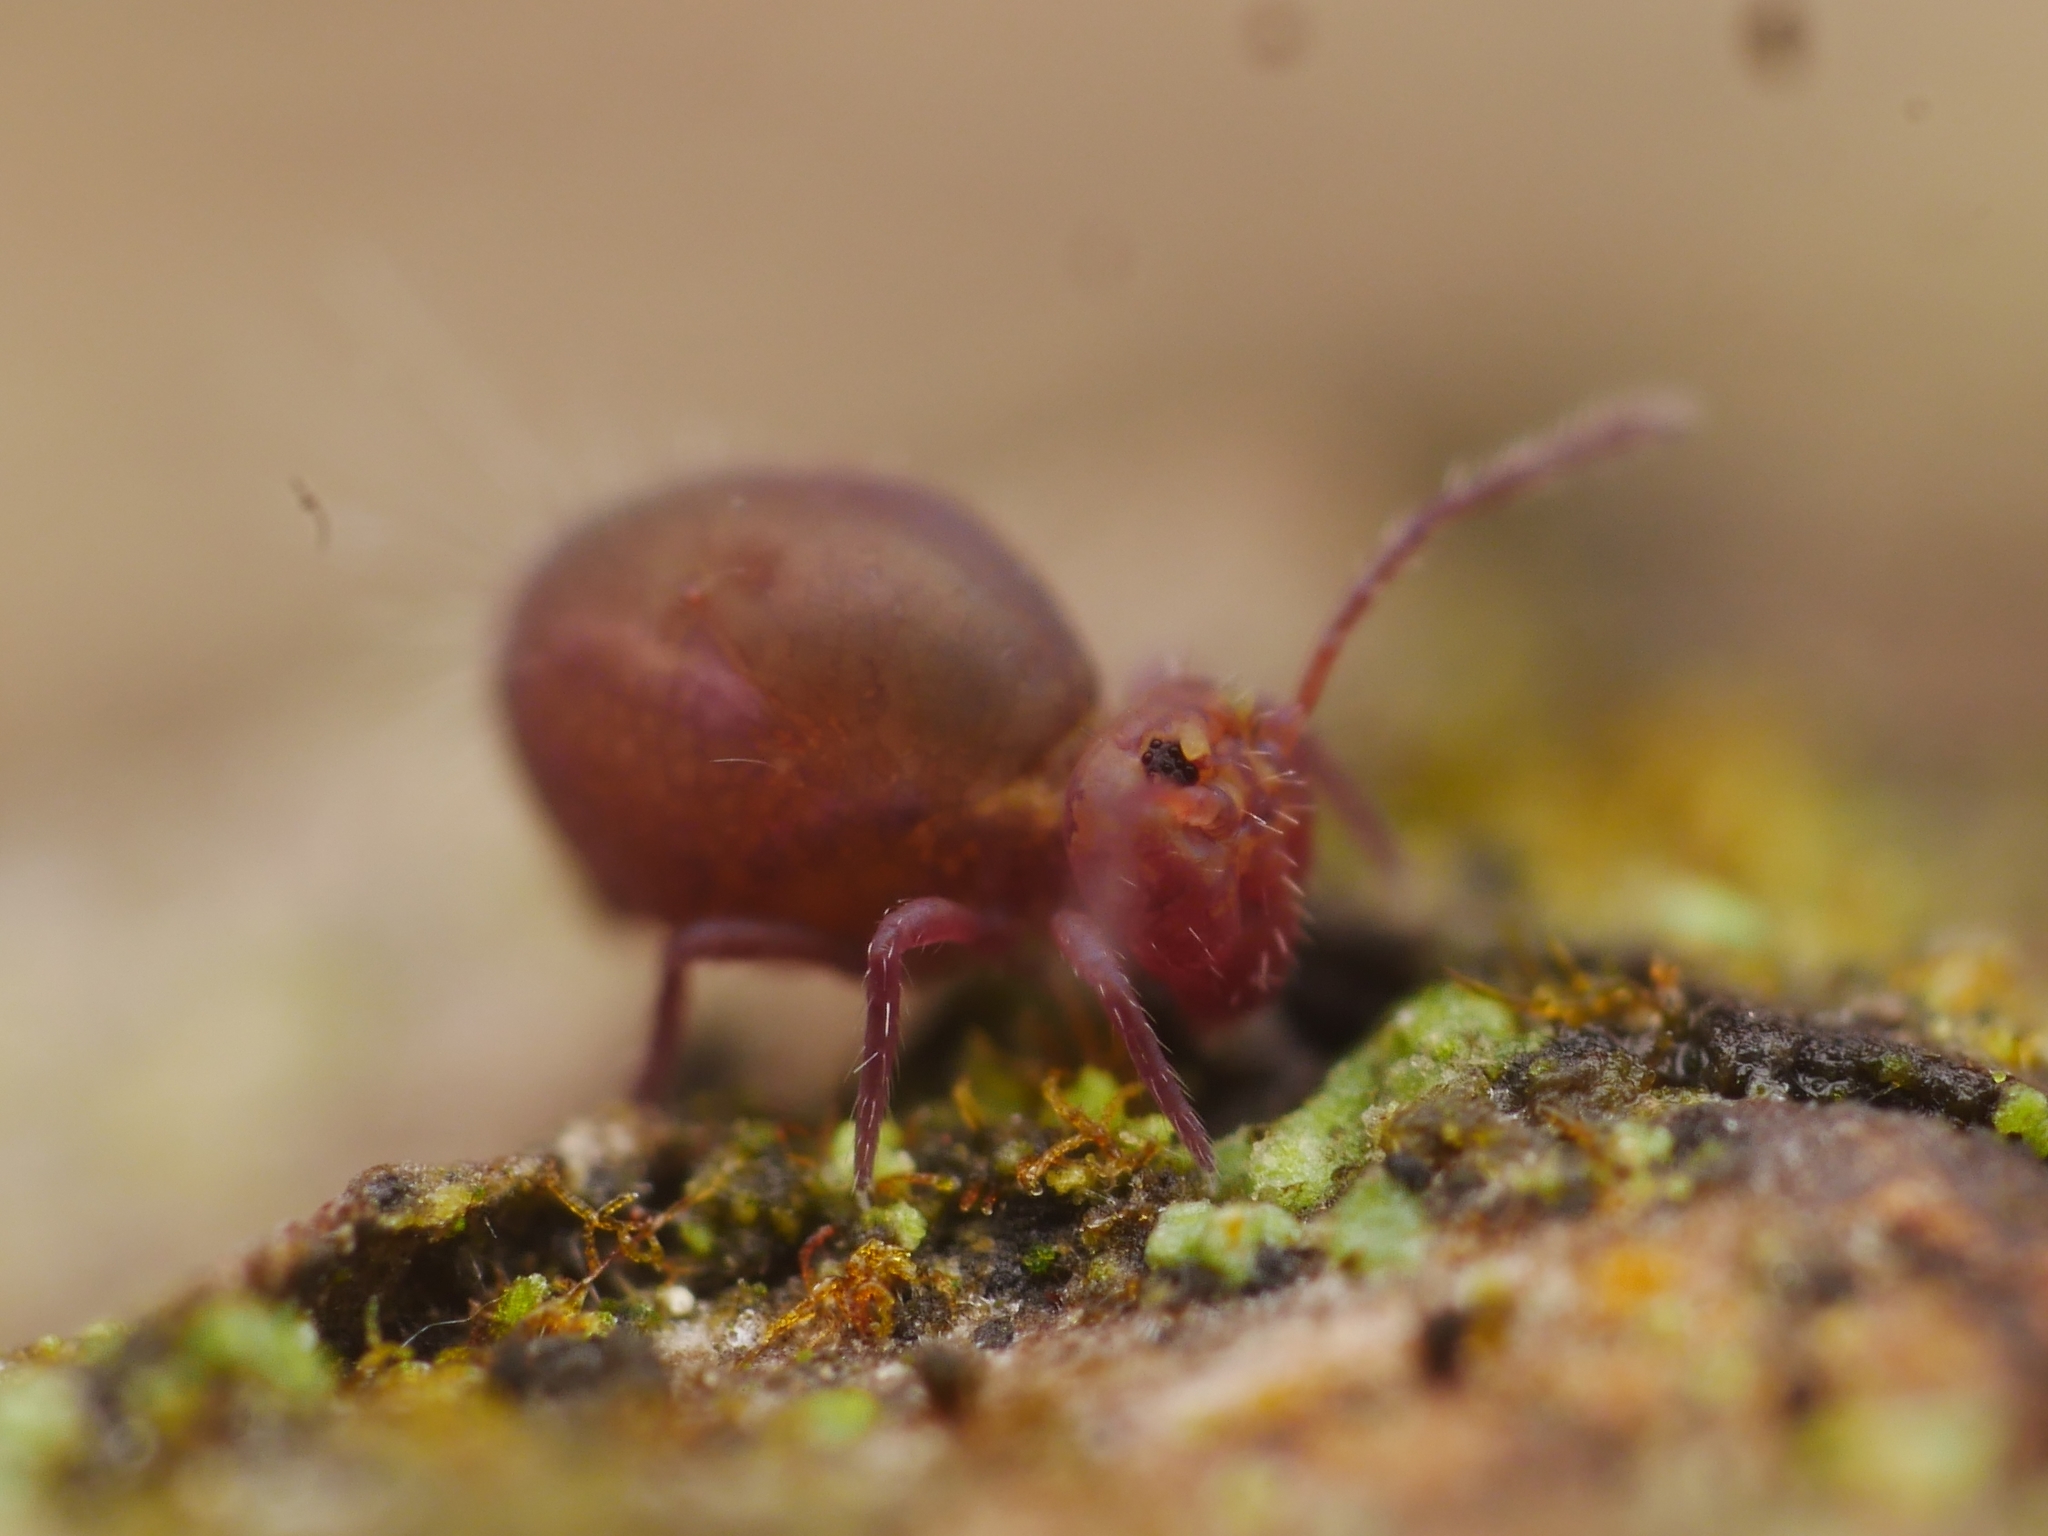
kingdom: Animalia
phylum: Arthropoda
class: Collembola
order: Symphypleona
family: Dicyrtomidae
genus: Dicyrtoma
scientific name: Dicyrtoma fusca
